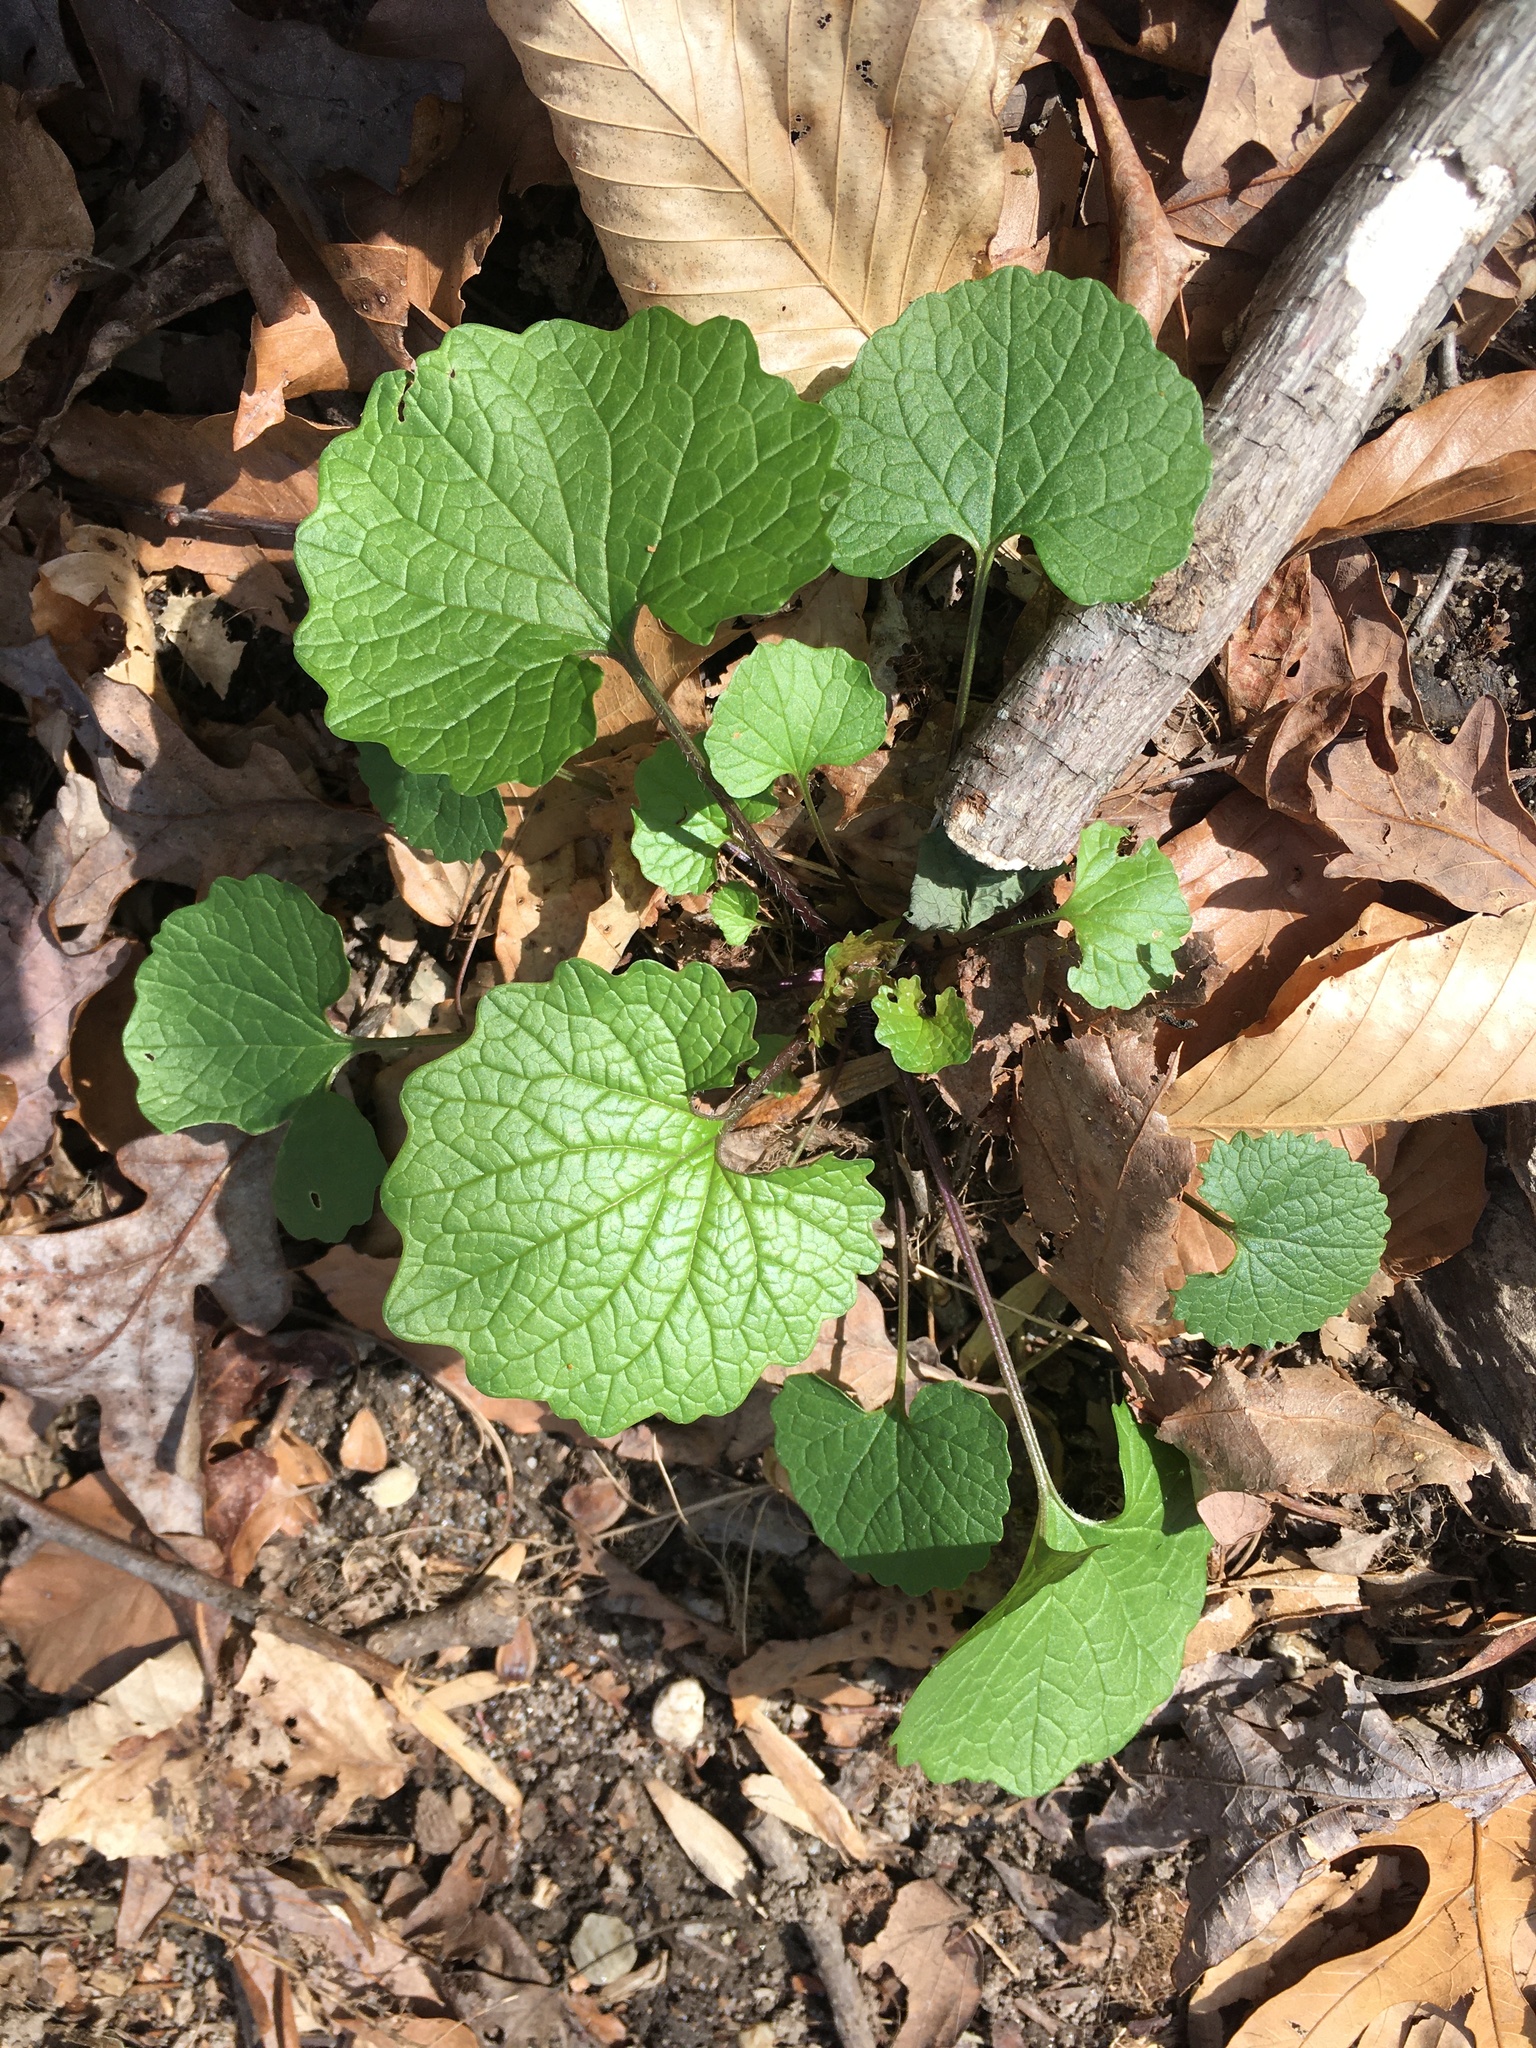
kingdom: Plantae
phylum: Tracheophyta
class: Magnoliopsida
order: Brassicales
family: Brassicaceae
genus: Alliaria
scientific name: Alliaria petiolata
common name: Garlic mustard
